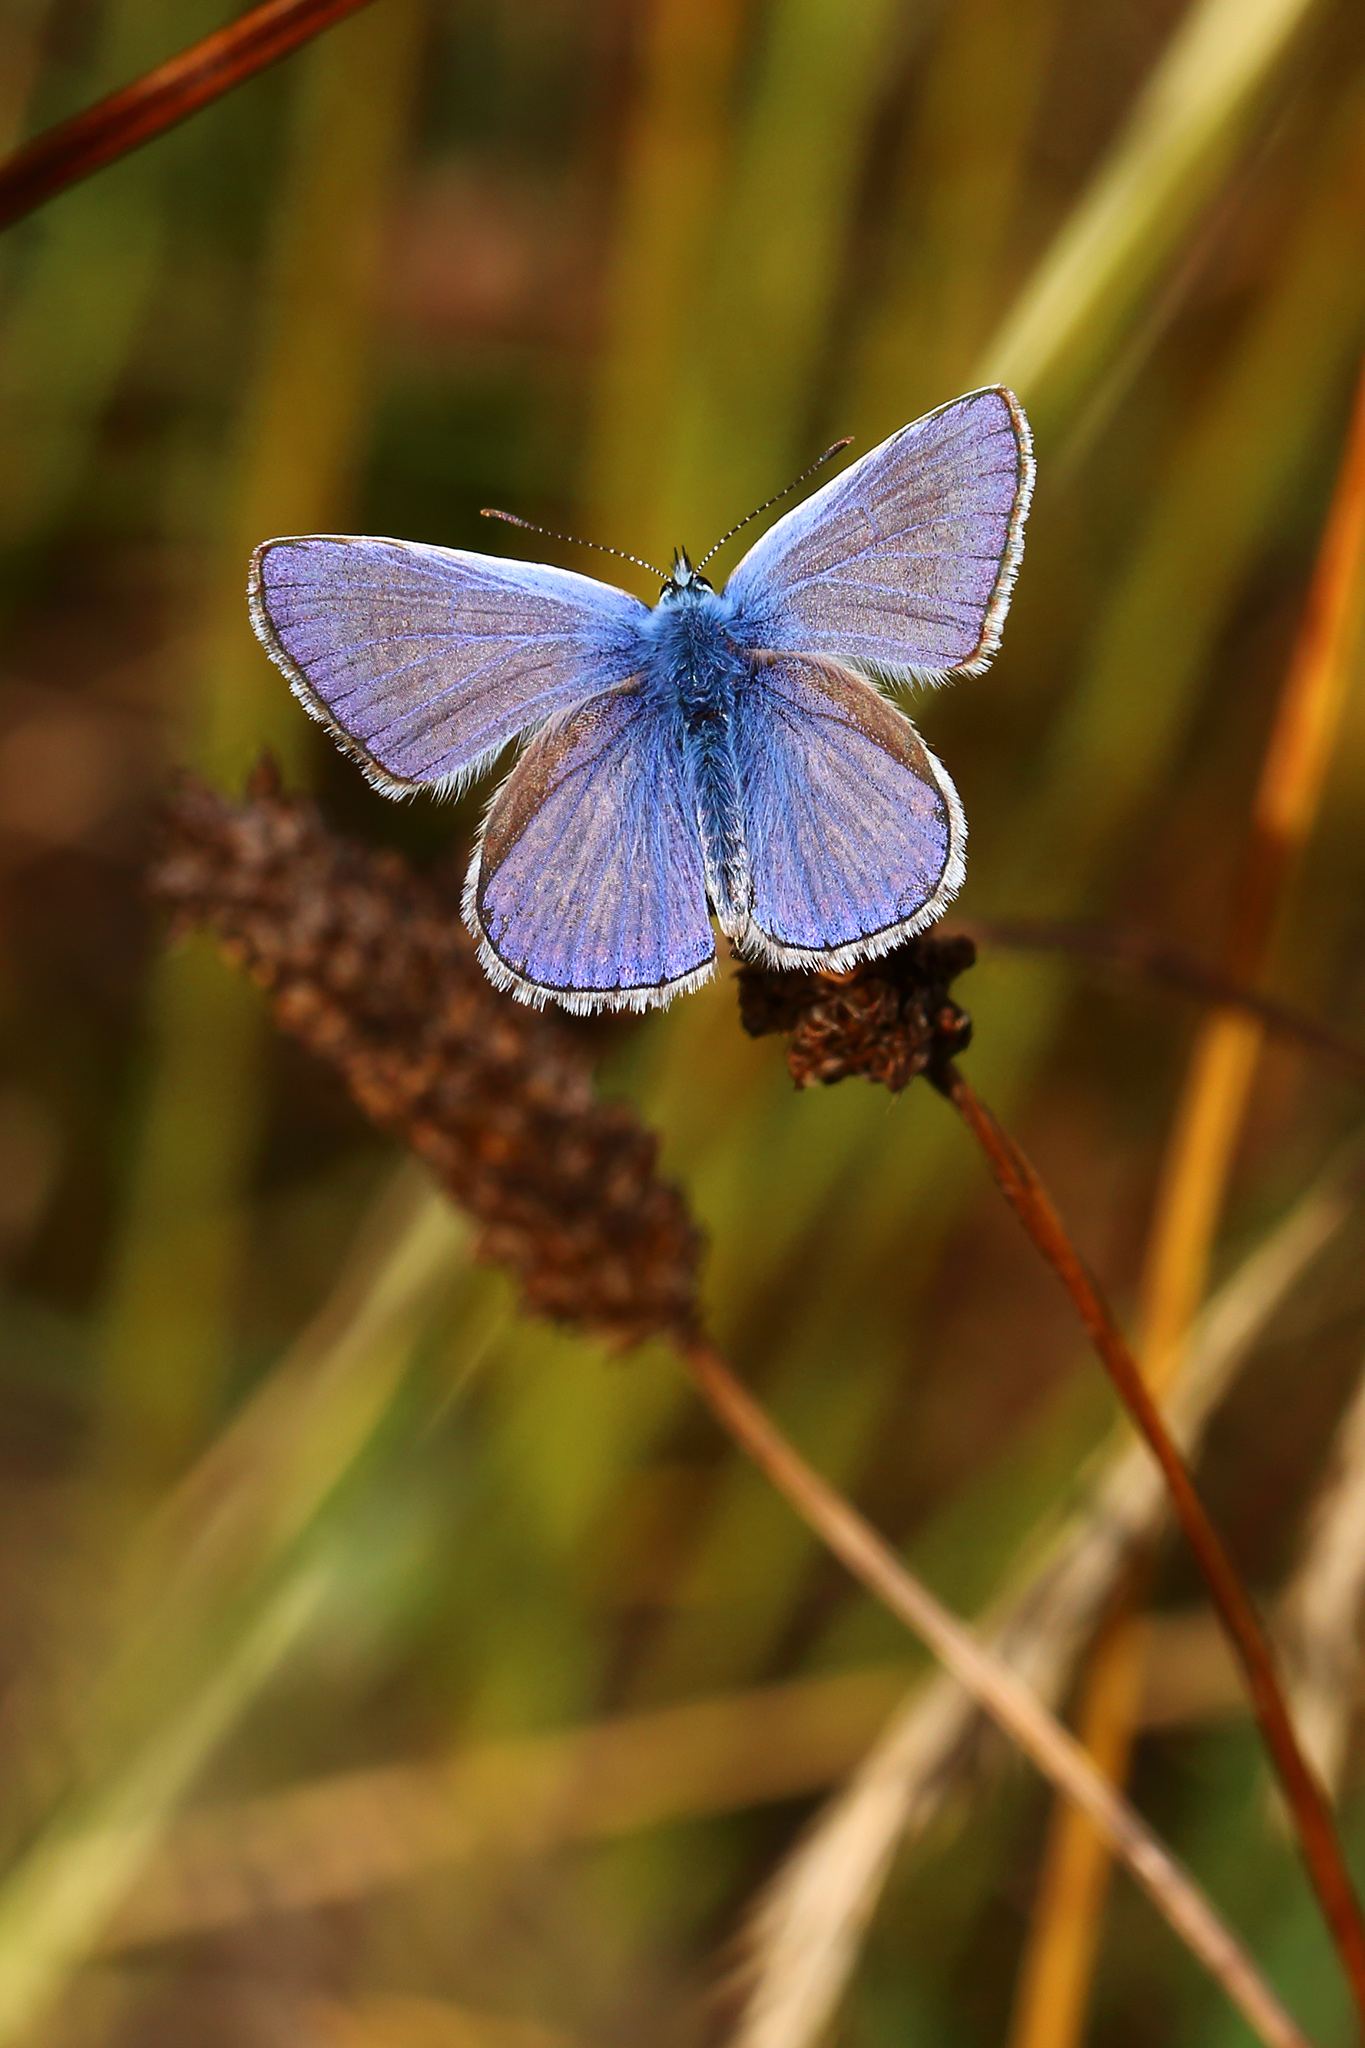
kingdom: Animalia
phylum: Arthropoda
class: Insecta
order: Lepidoptera
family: Lycaenidae
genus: Polyommatus
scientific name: Polyommatus icarus
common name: Common blue
